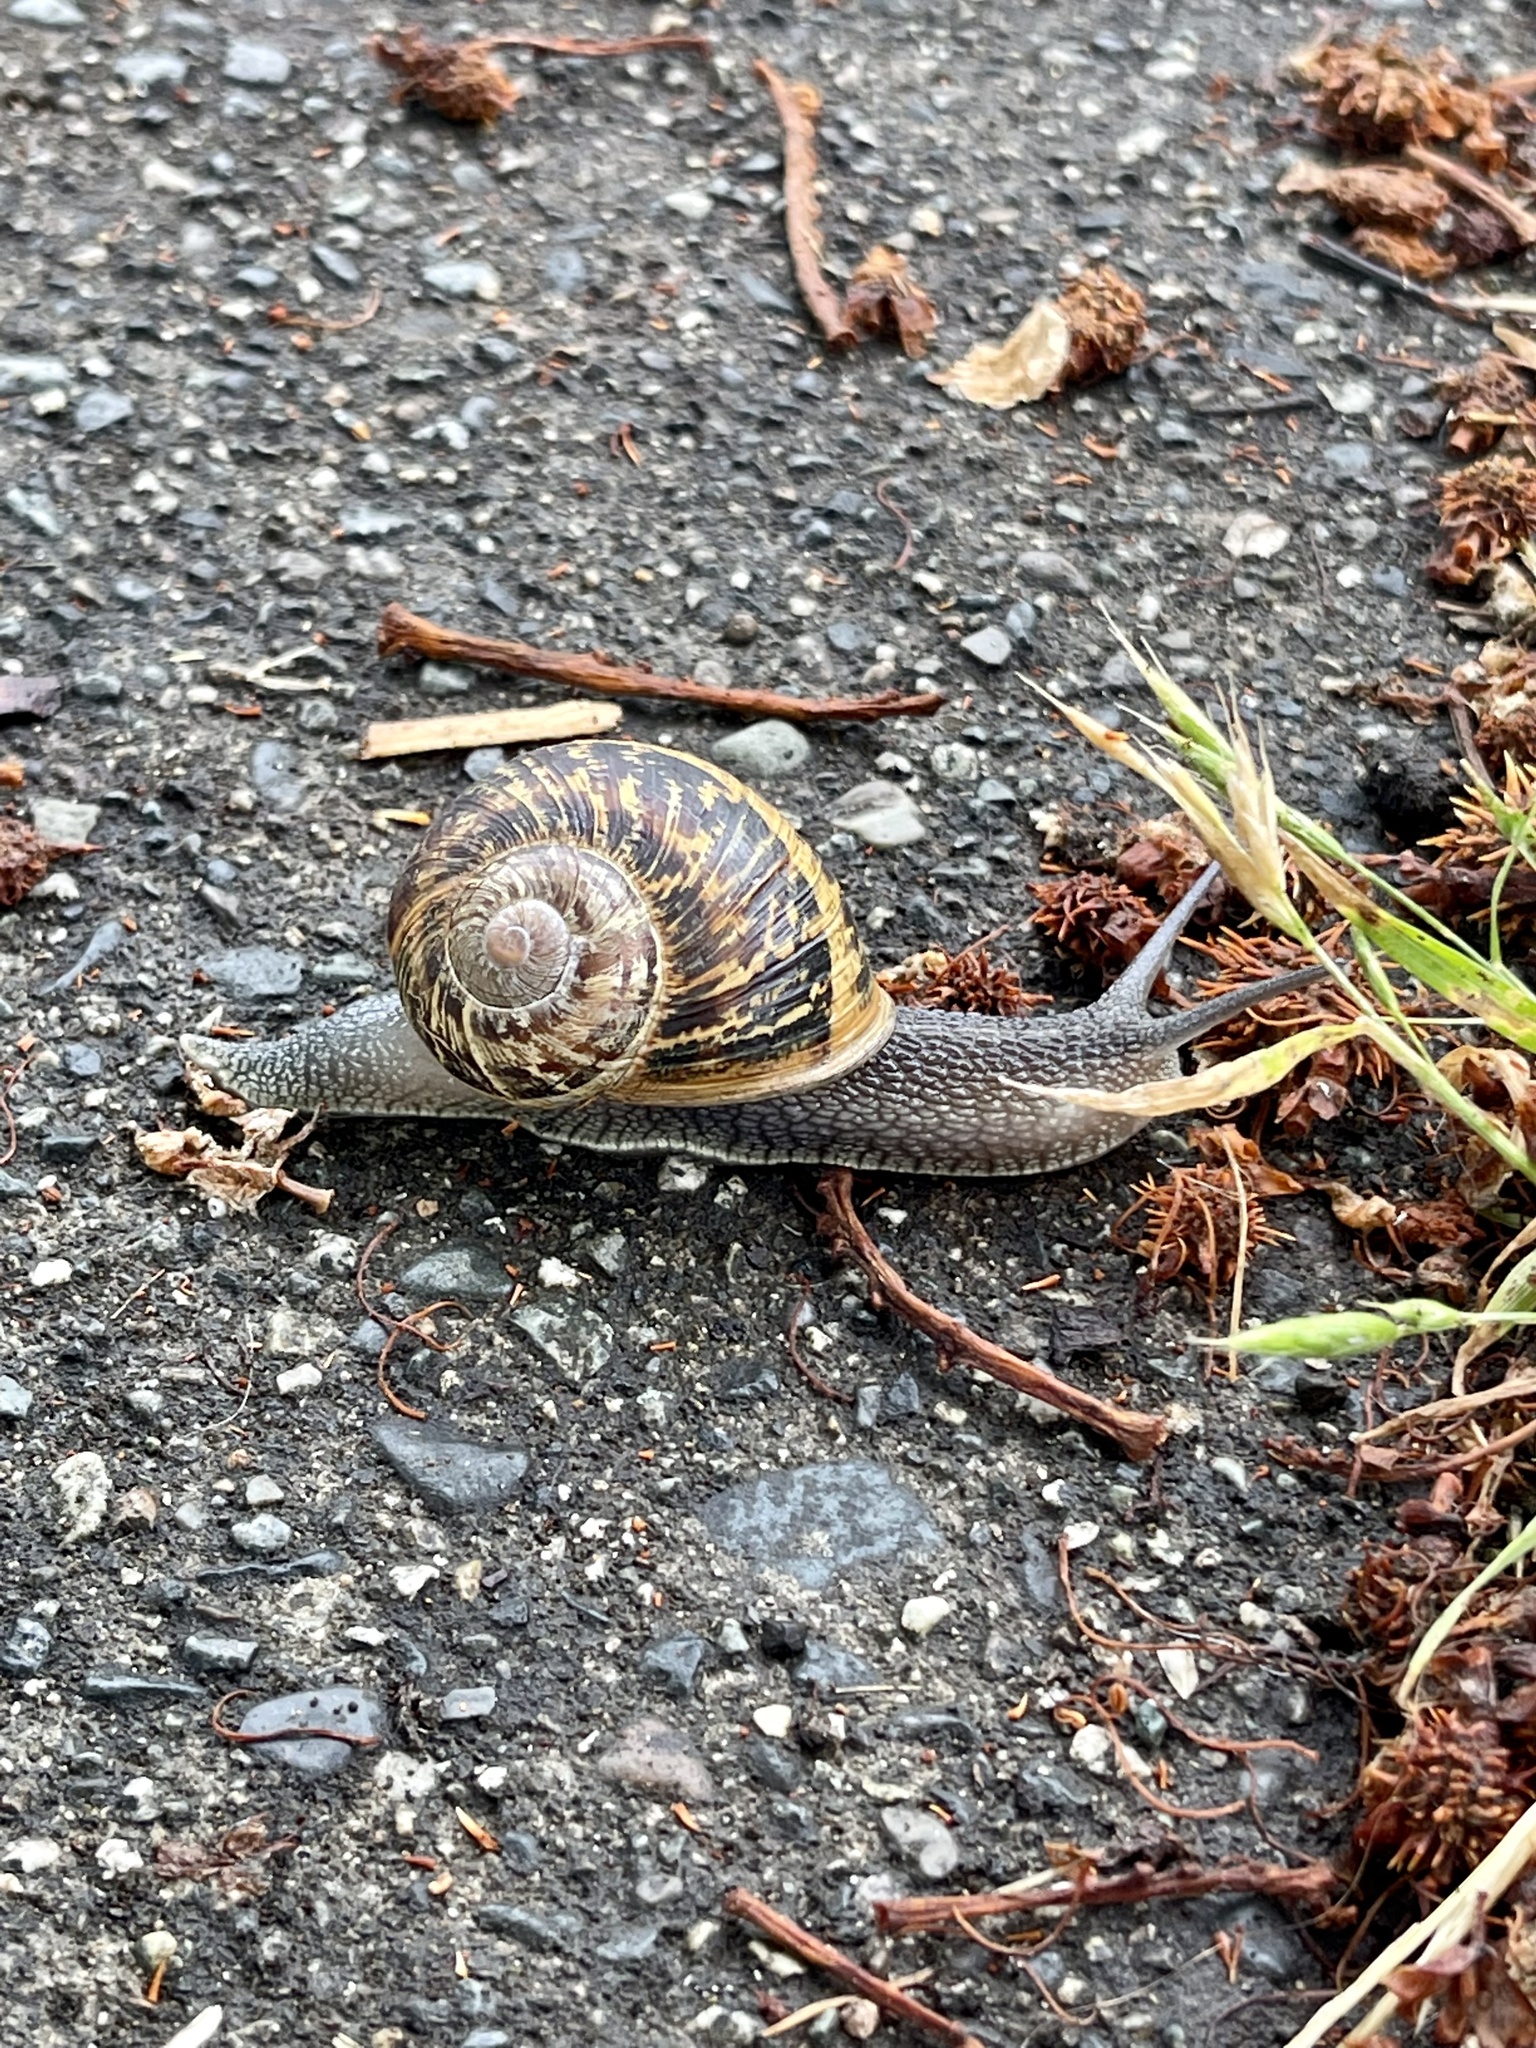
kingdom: Animalia
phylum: Mollusca
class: Gastropoda
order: Stylommatophora
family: Helicidae
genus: Cornu
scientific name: Cornu aspersum
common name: Brown garden snail
